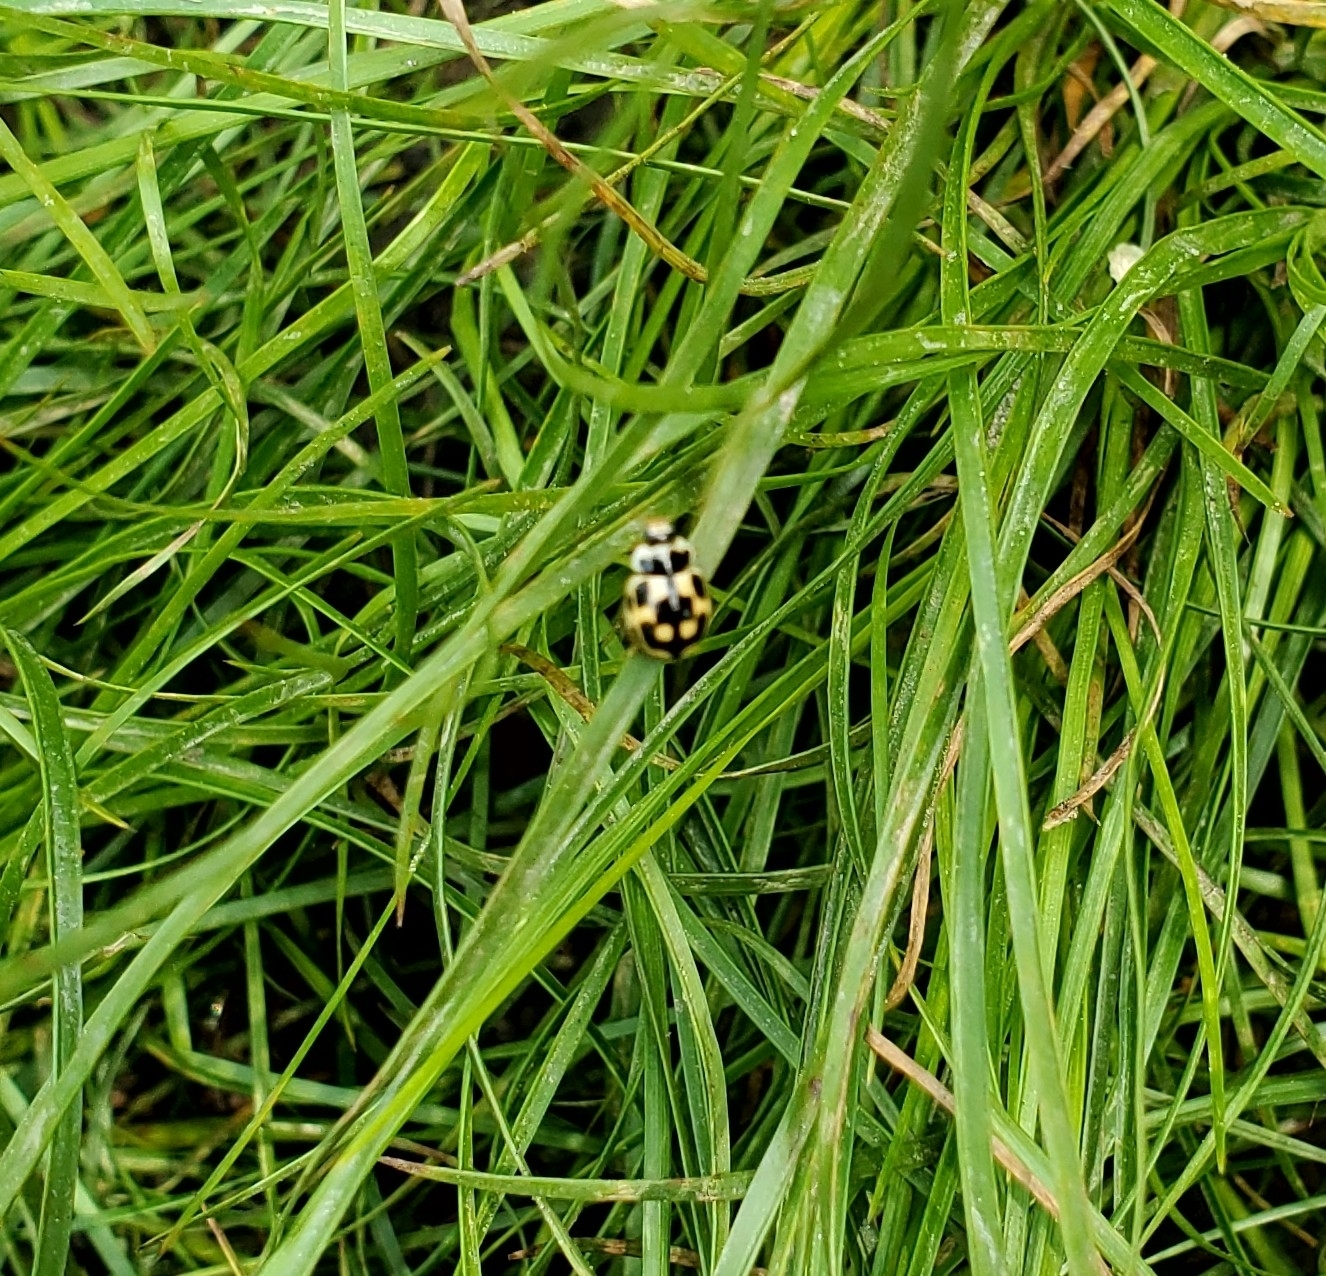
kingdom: Animalia
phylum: Arthropoda
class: Insecta
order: Coleoptera
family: Coccinellidae
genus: Propylaea
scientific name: Propylaea quatuordecimpunctata
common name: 14-spotted ladybird beetle
